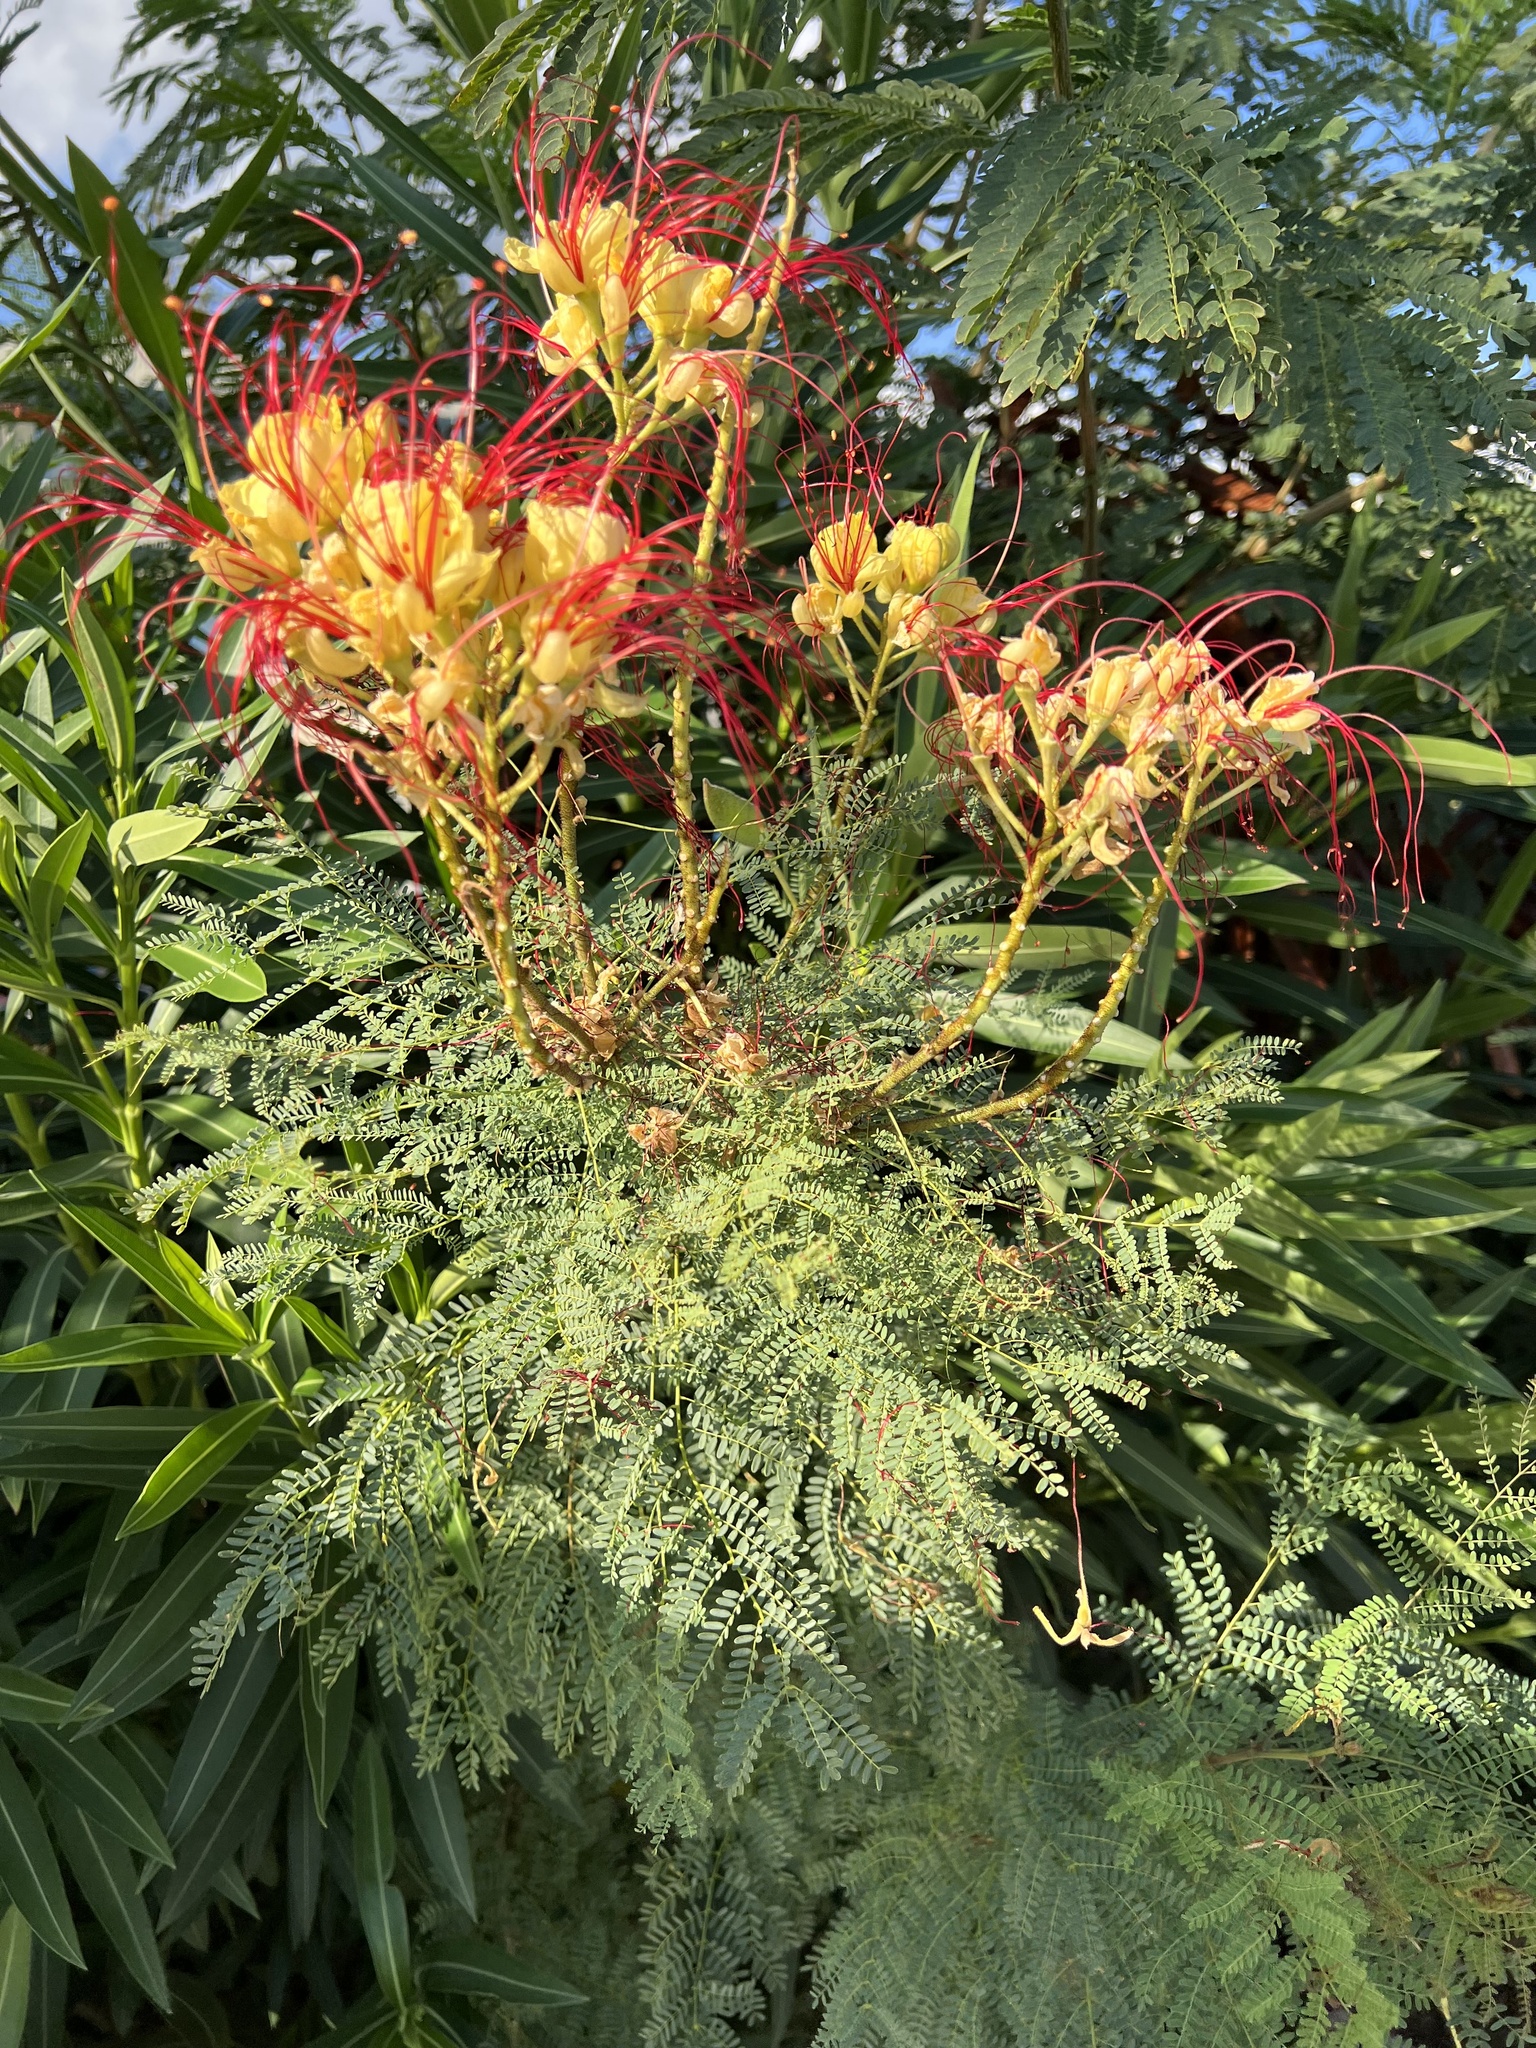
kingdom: Plantae
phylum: Tracheophyta
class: Magnoliopsida
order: Fabales
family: Fabaceae
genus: Erythrostemon
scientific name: Erythrostemon gilliesii
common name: Bird-of-paradise shrub
